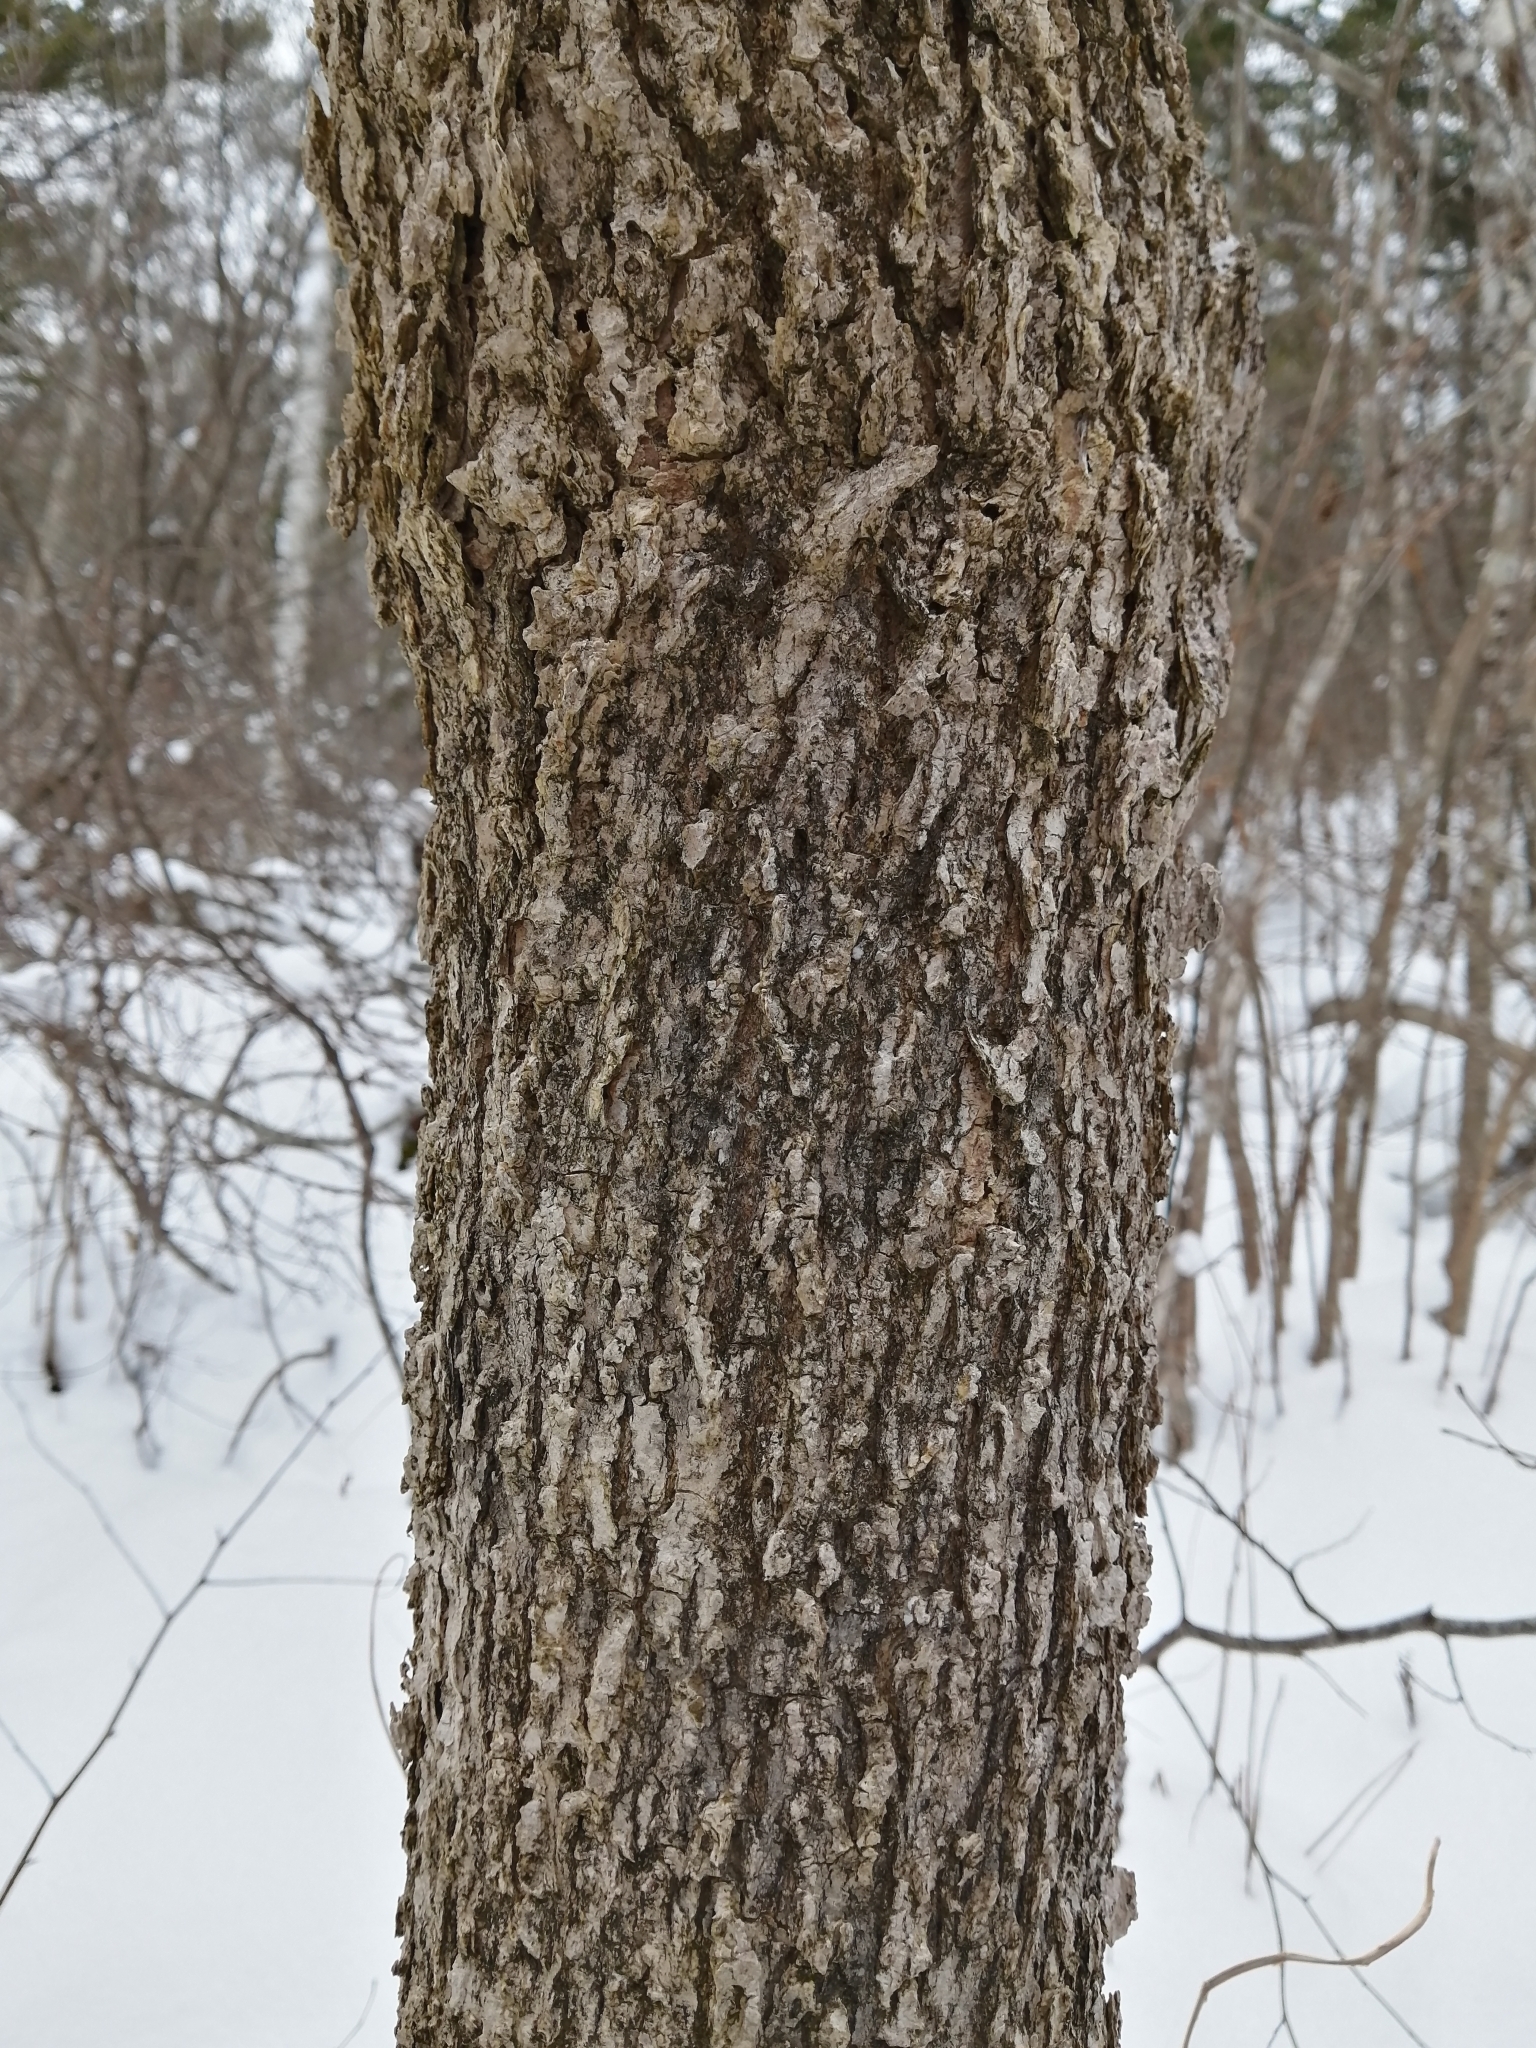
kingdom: Plantae
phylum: Tracheophyta
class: Magnoliopsida
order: Lamiales
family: Oleaceae
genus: Fraxinus
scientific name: Fraxinus nigra
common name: Black ash
